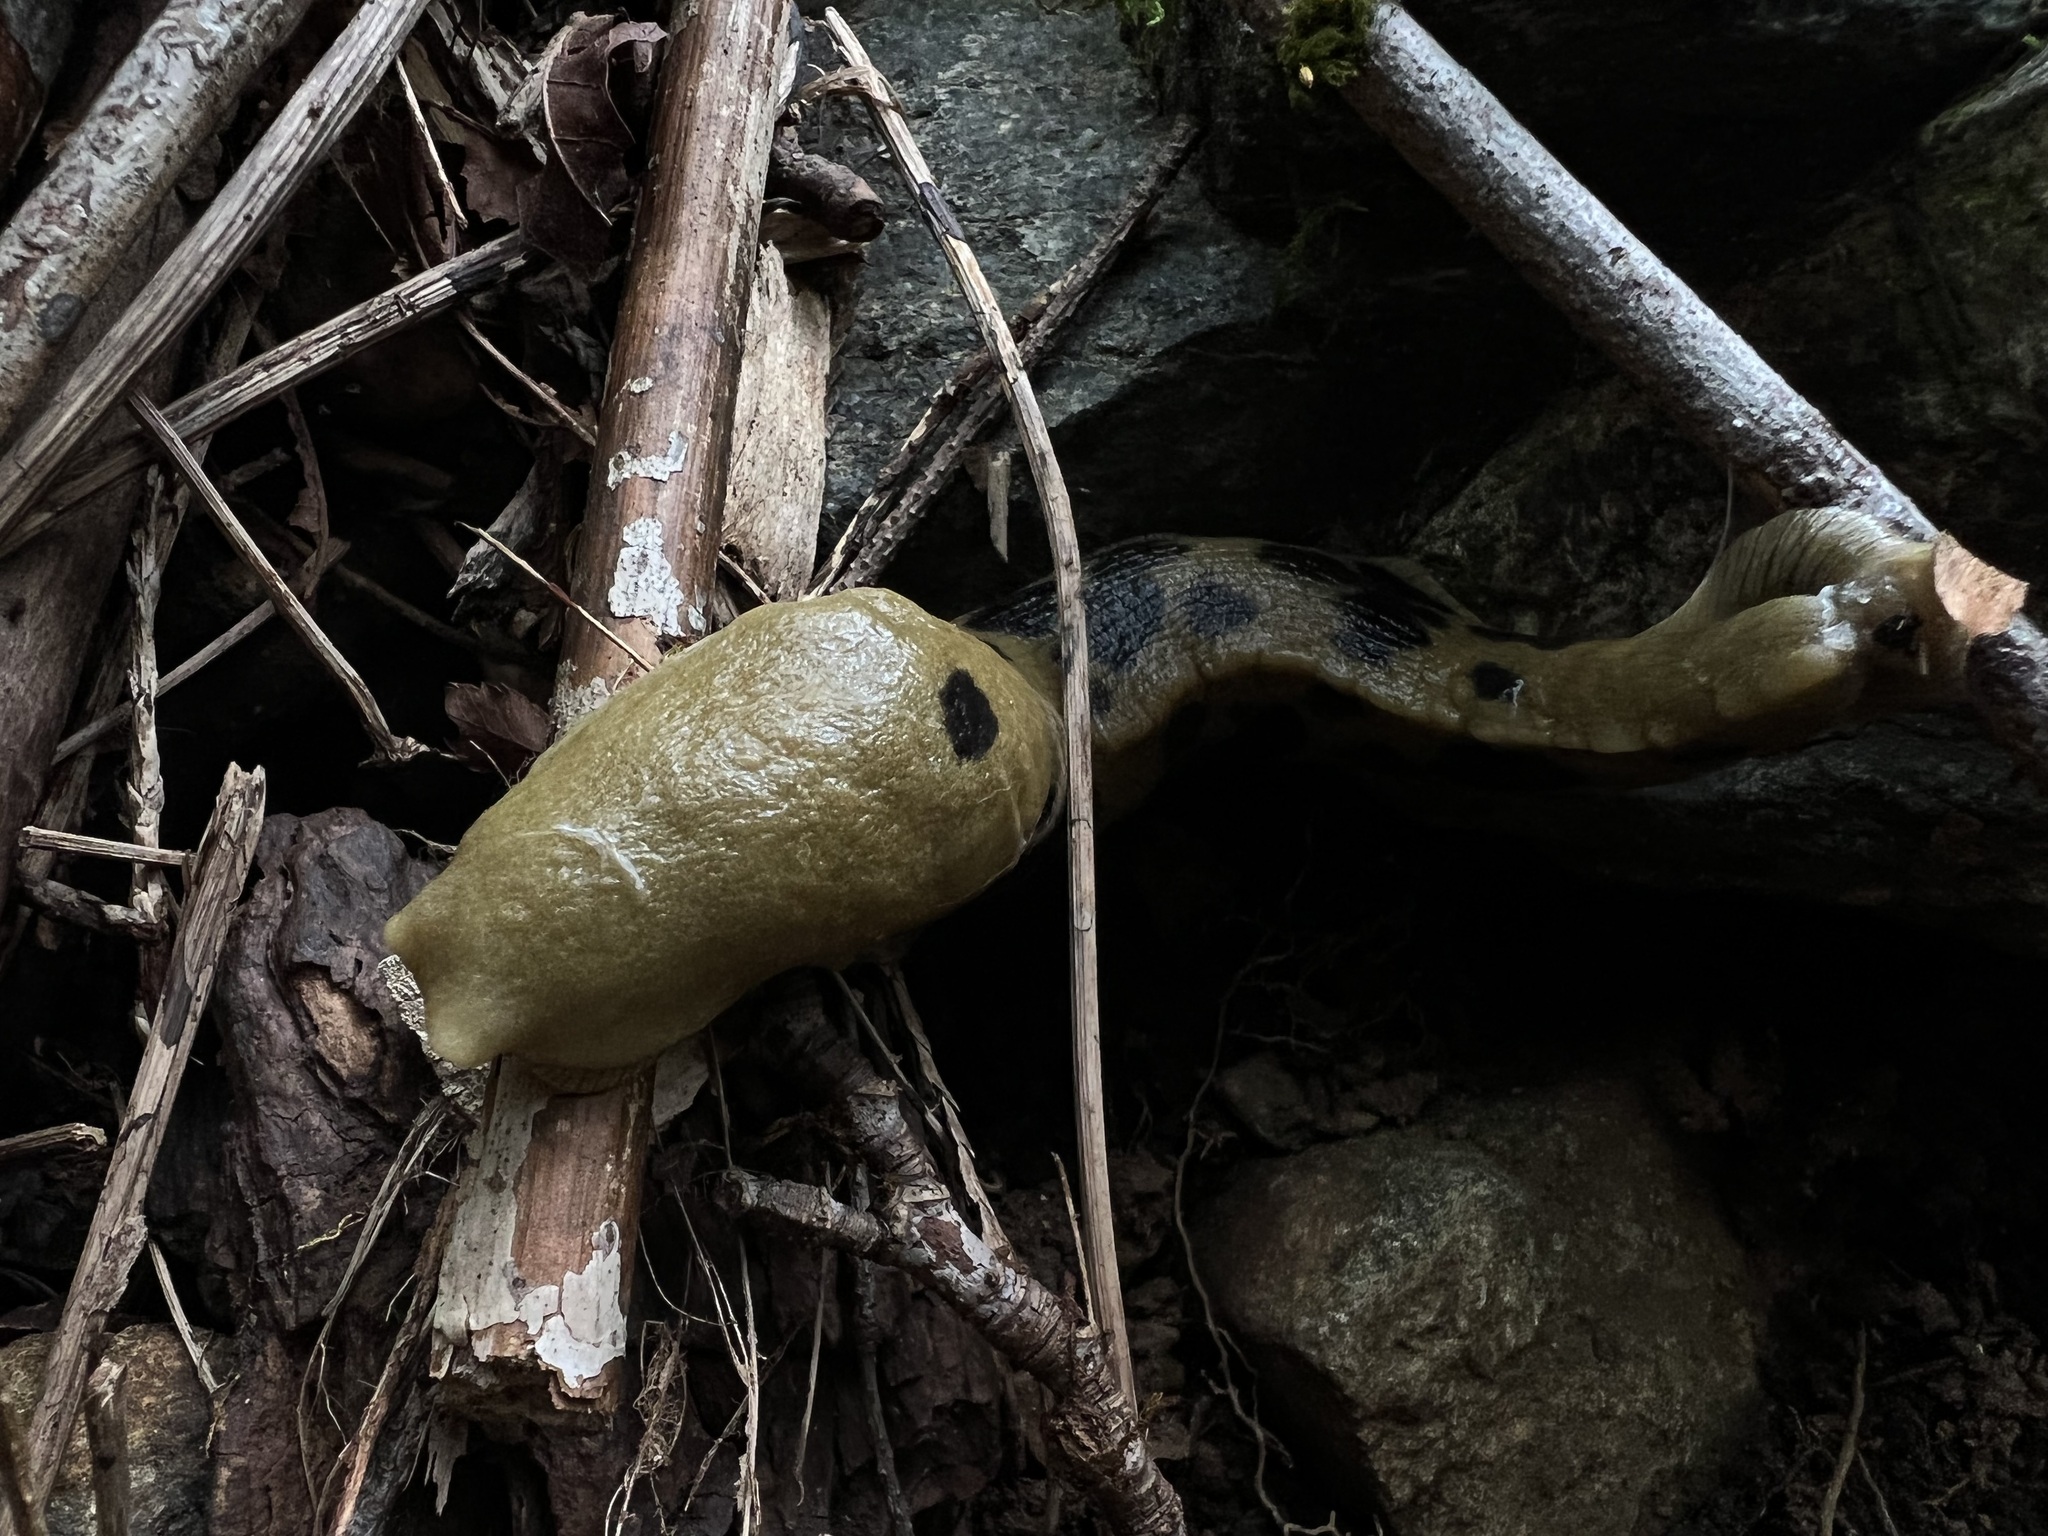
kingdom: Animalia
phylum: Mollusca
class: Gastropoda
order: Stylommatophora
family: Ariolimacidae
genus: Ariolimax
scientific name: Ariolimax columbianus
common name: Pacific banana slug
